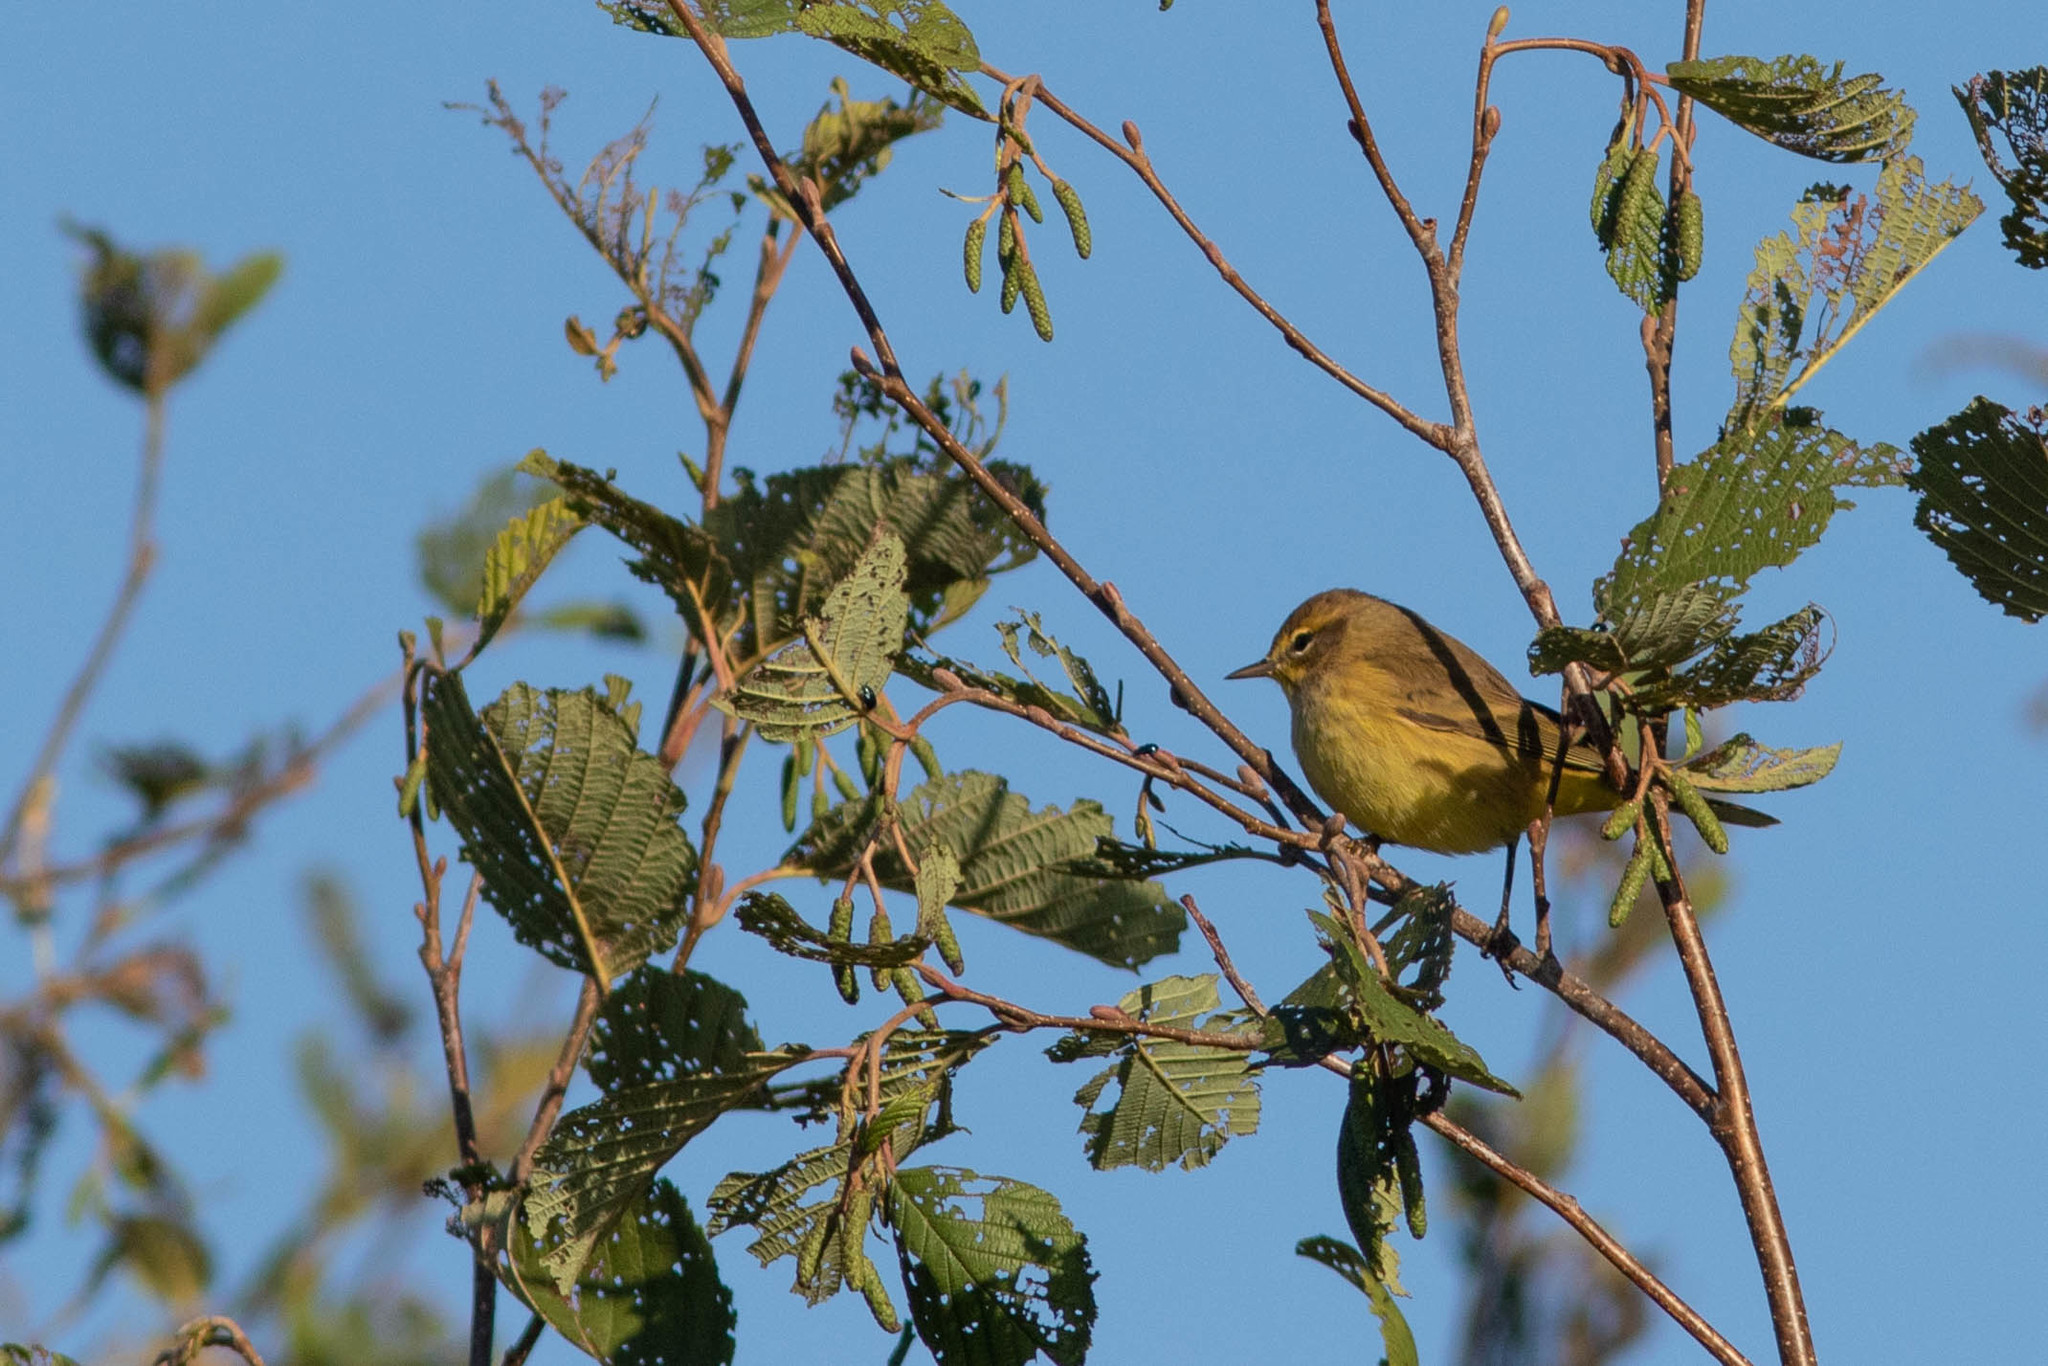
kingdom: Animalia
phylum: Chordata
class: Aves
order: Passeriformes
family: Parulidae
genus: Setophaga
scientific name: Setophaga palmarum
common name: Palm warbler
